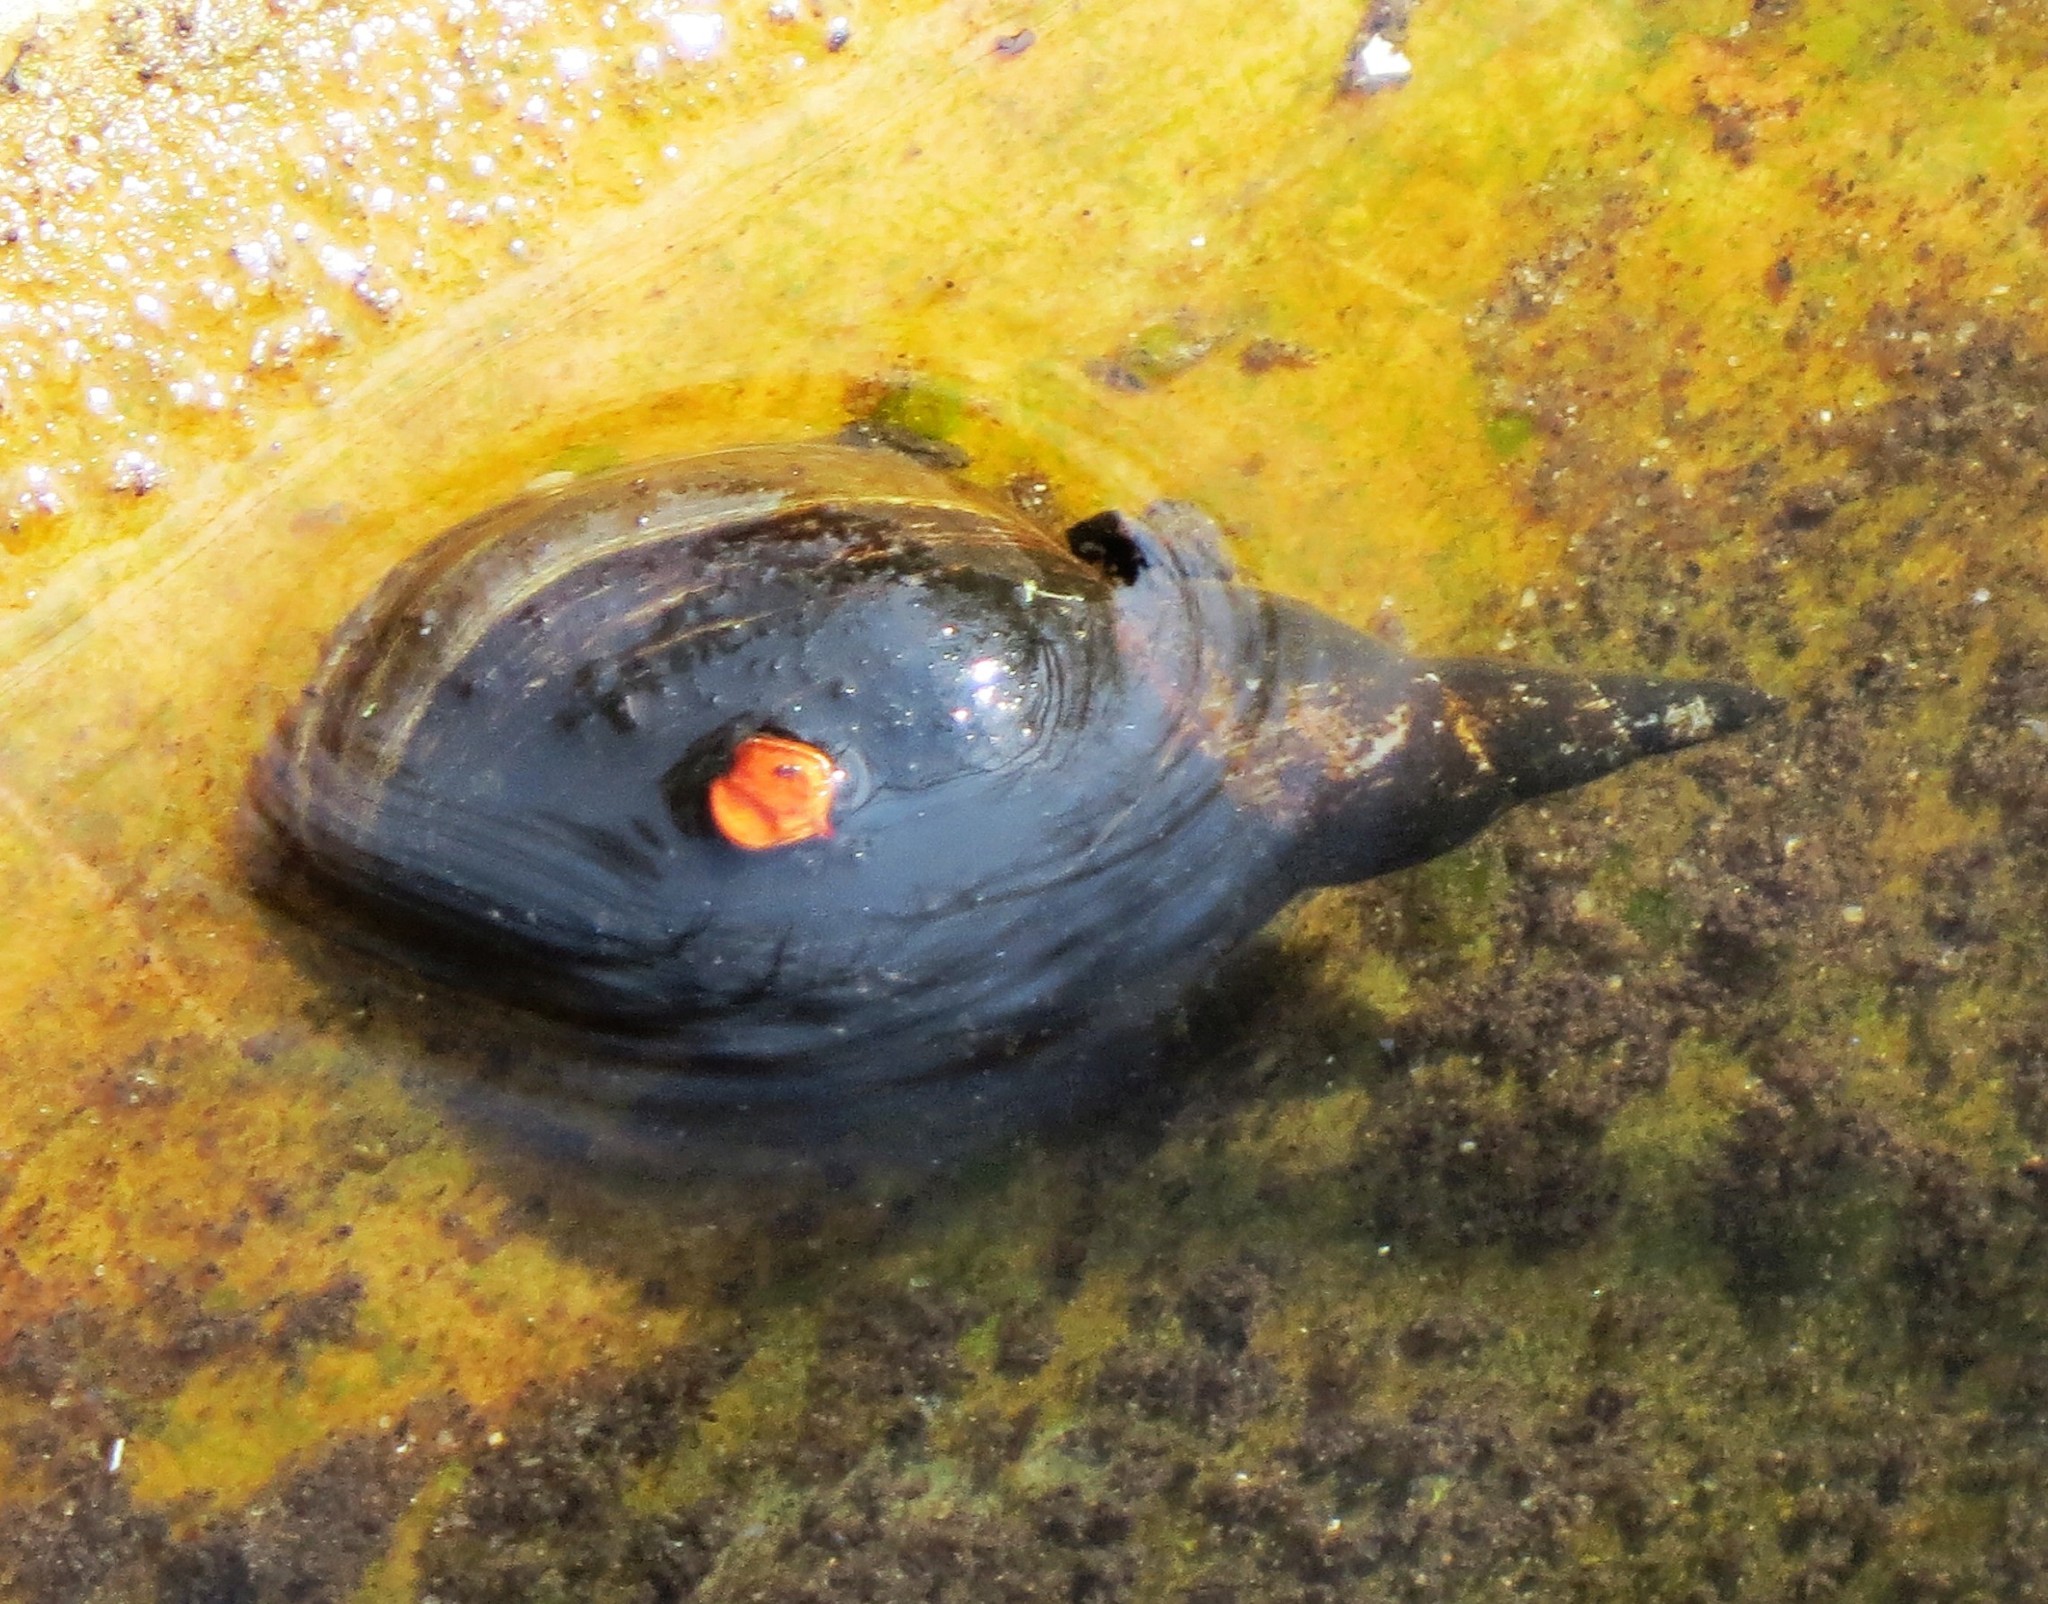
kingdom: Animalia
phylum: Mollusca
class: Gastropoda
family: Lymnaeidae
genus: Lymnaea
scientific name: Lymnaea stagnalis
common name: Great pond snail
